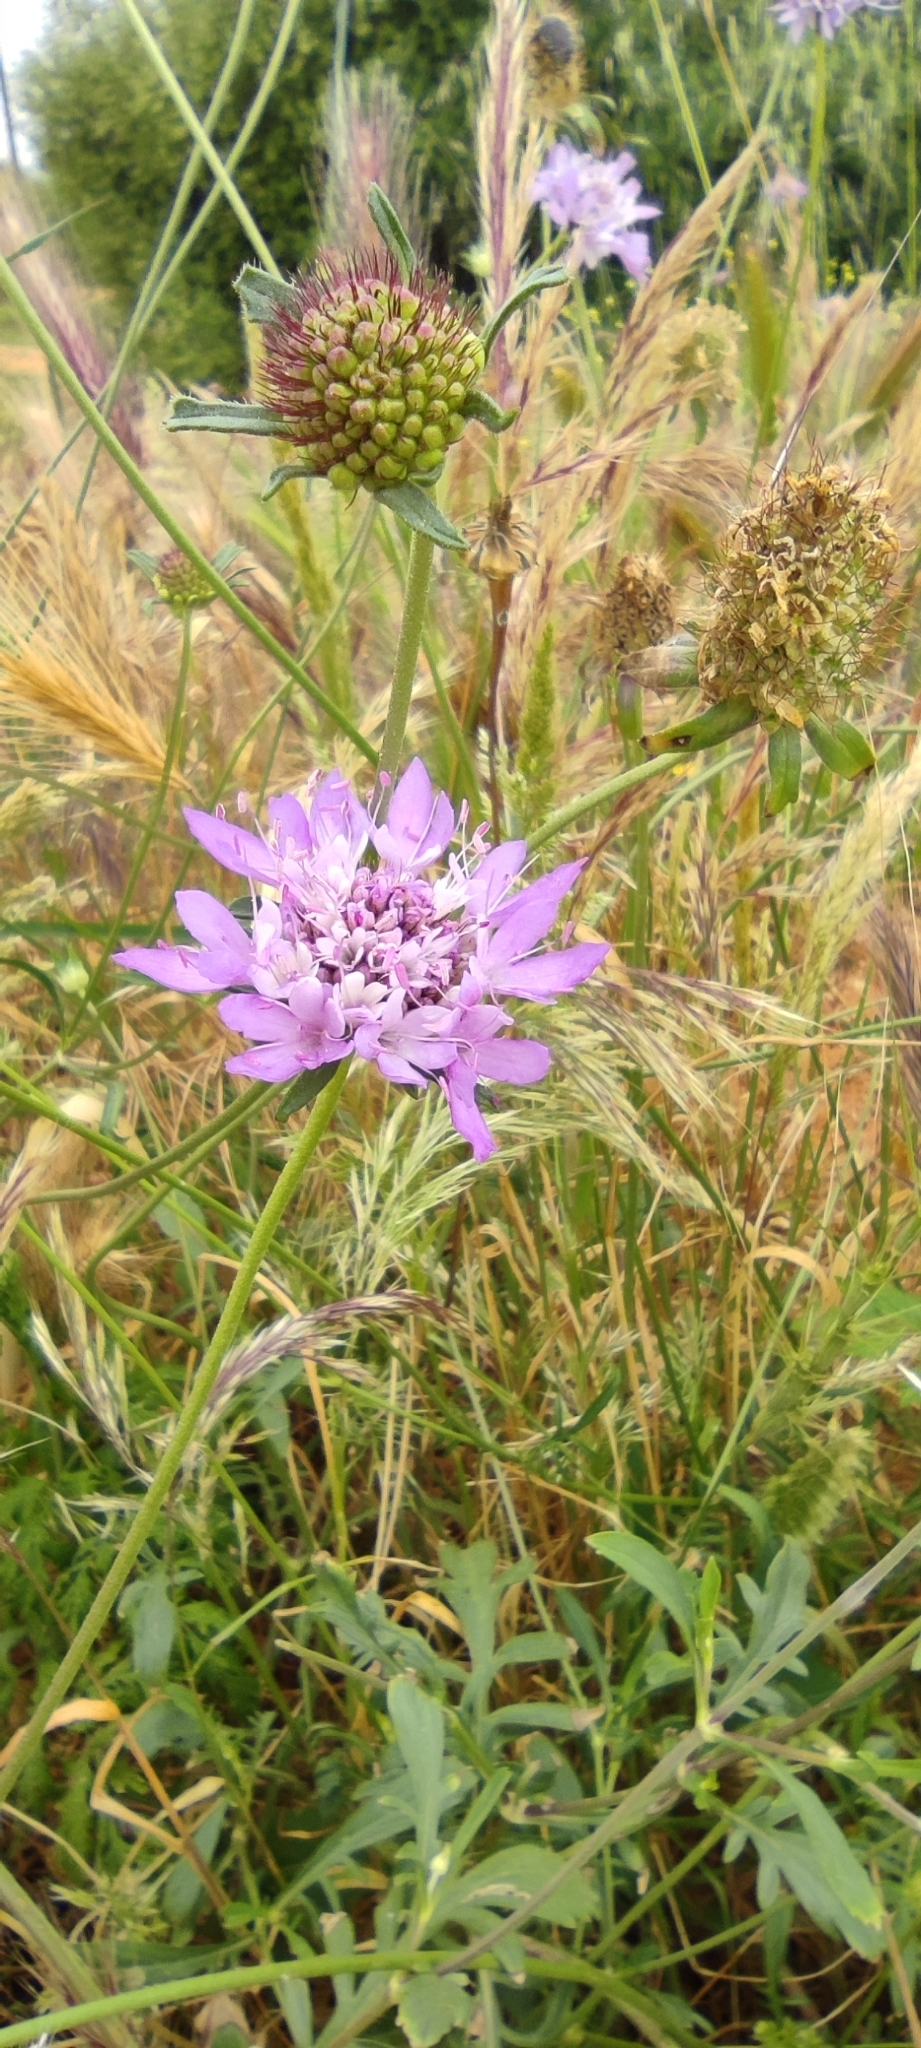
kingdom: Plantae
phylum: Tracheophyta
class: Magnoliopsida
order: Dipsacales
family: Caprifoliaceae
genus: Sixalix
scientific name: Sixalix atropurpurea
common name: Sweet scabious
